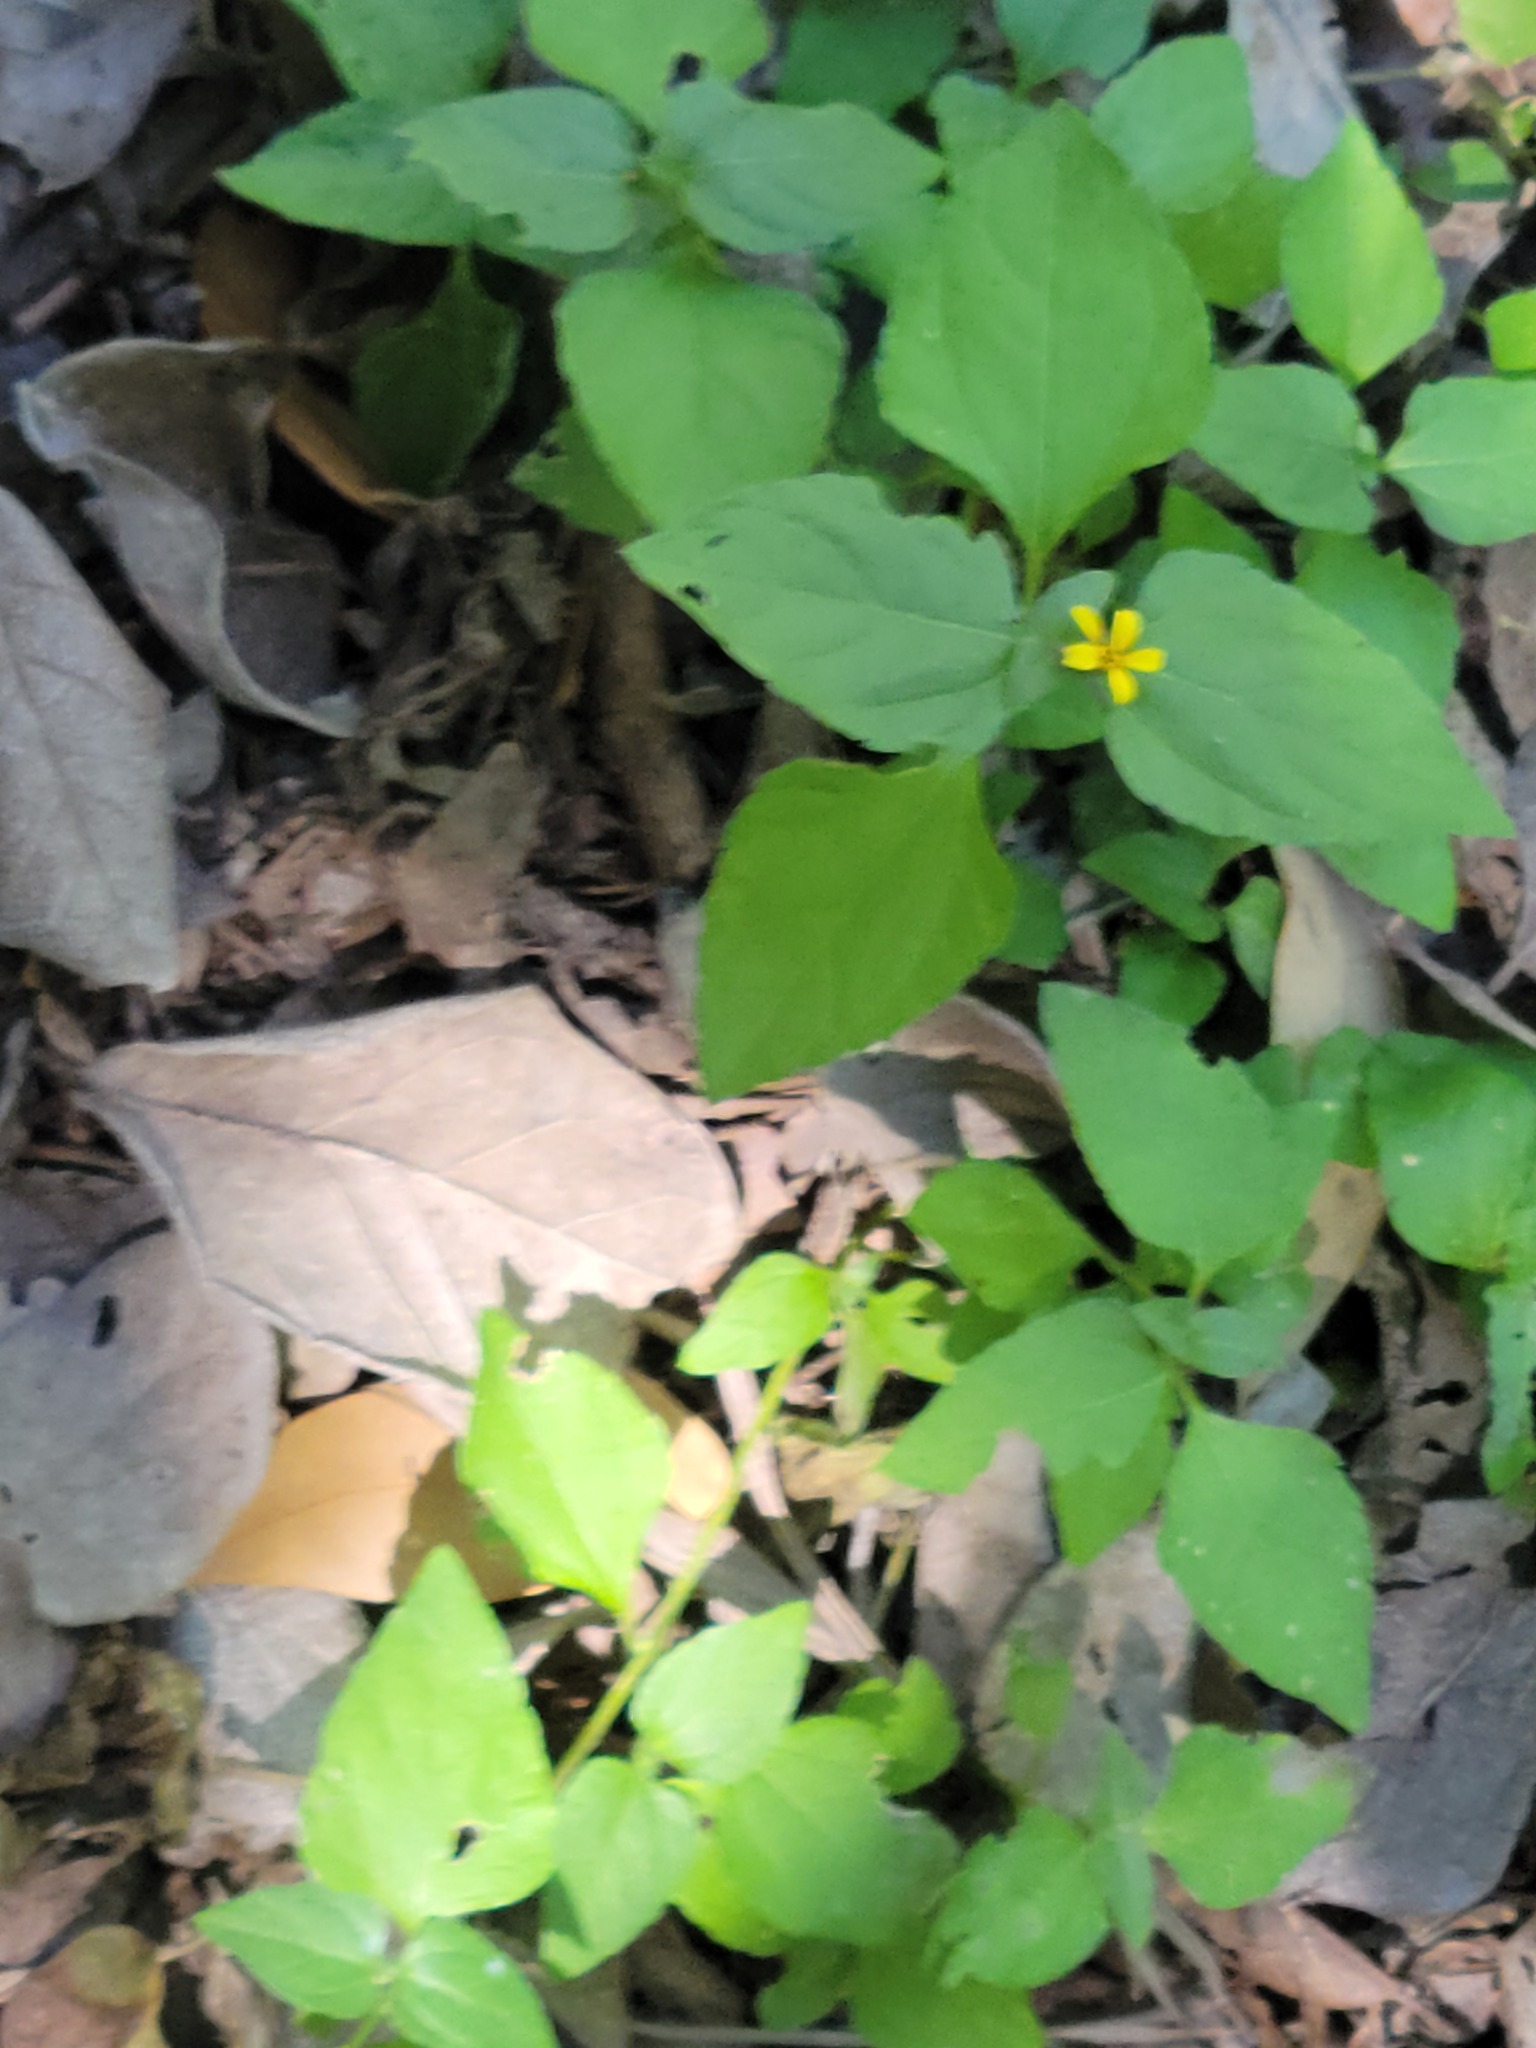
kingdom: Plantae
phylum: Tracheophyta
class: Magnoliopsida
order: Asterales
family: Asteraceae
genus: Calyptocarpus
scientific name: Calyptocarpus vialis
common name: Straggler daisy
